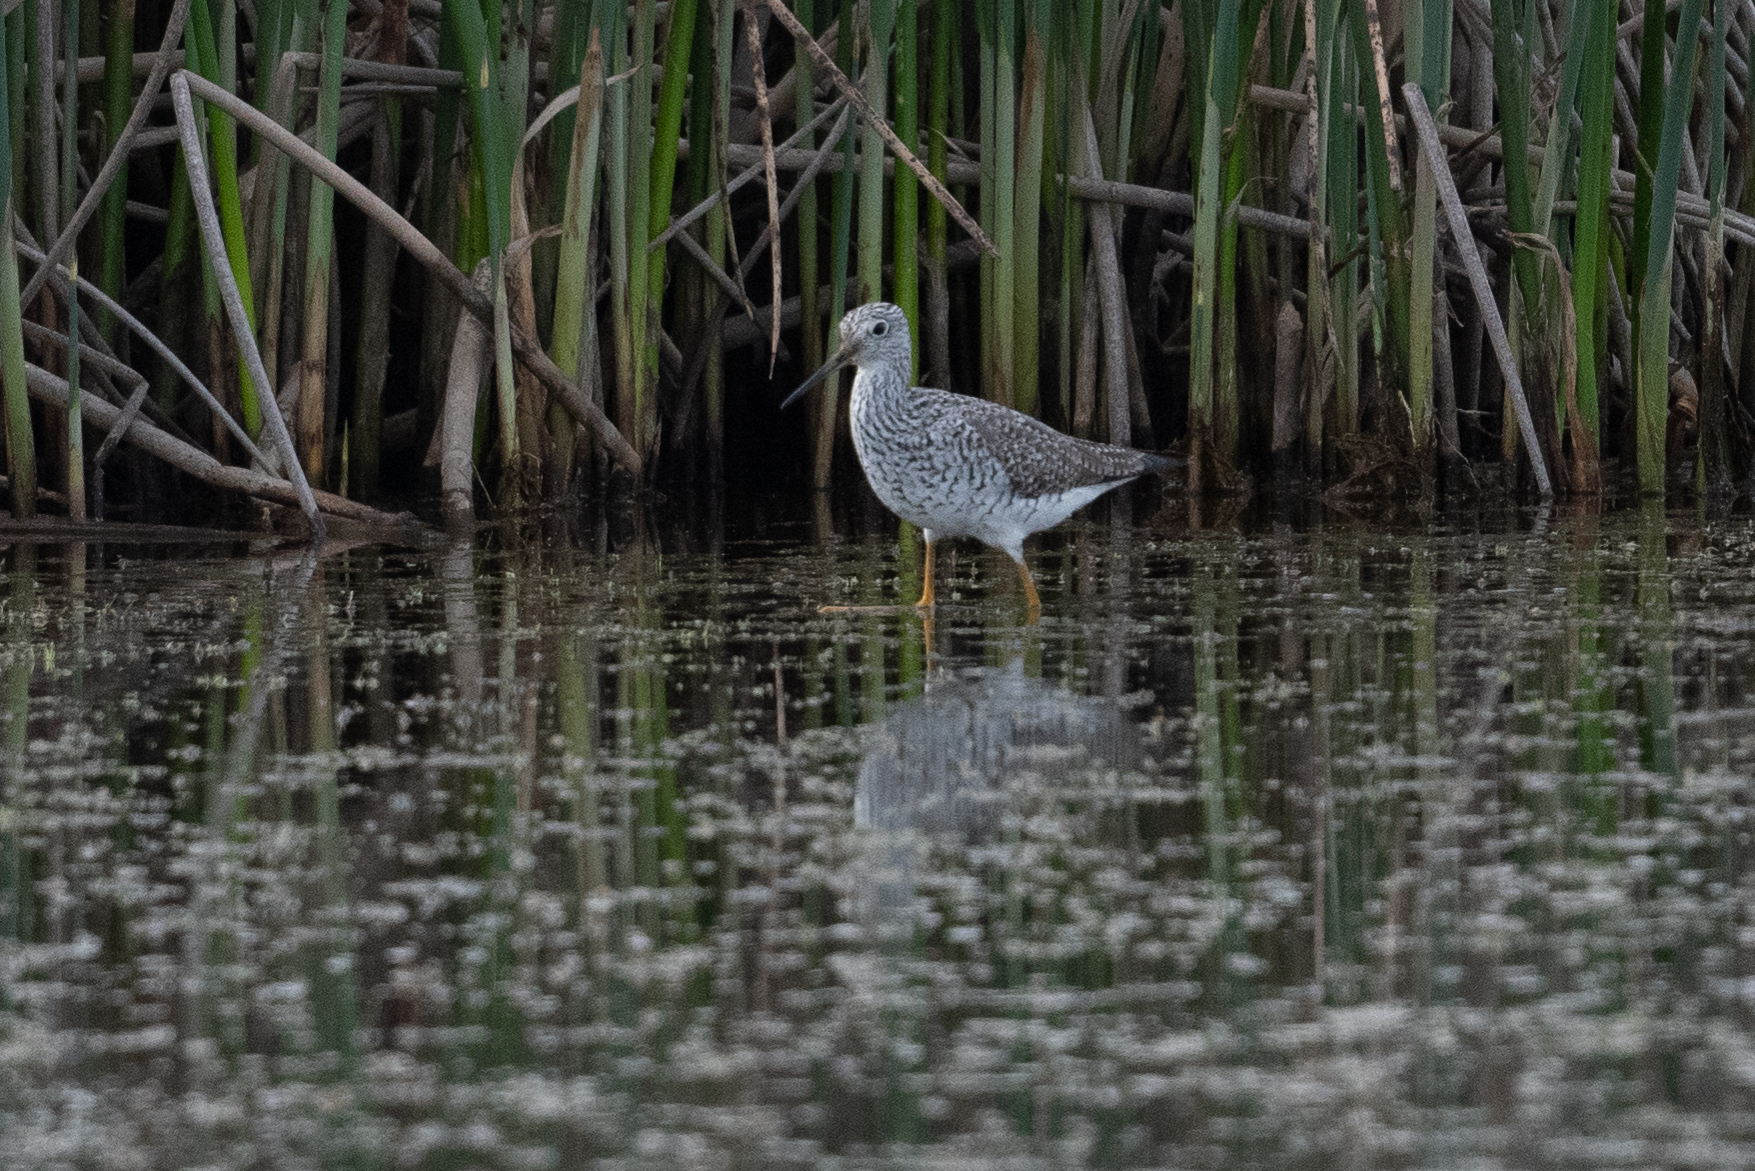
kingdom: Animalia
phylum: Chordata
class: Aves
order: Charadriiformes
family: Scolopacidae
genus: Tringa
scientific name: Tringa melanoleuca
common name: Greater yellowlegs
